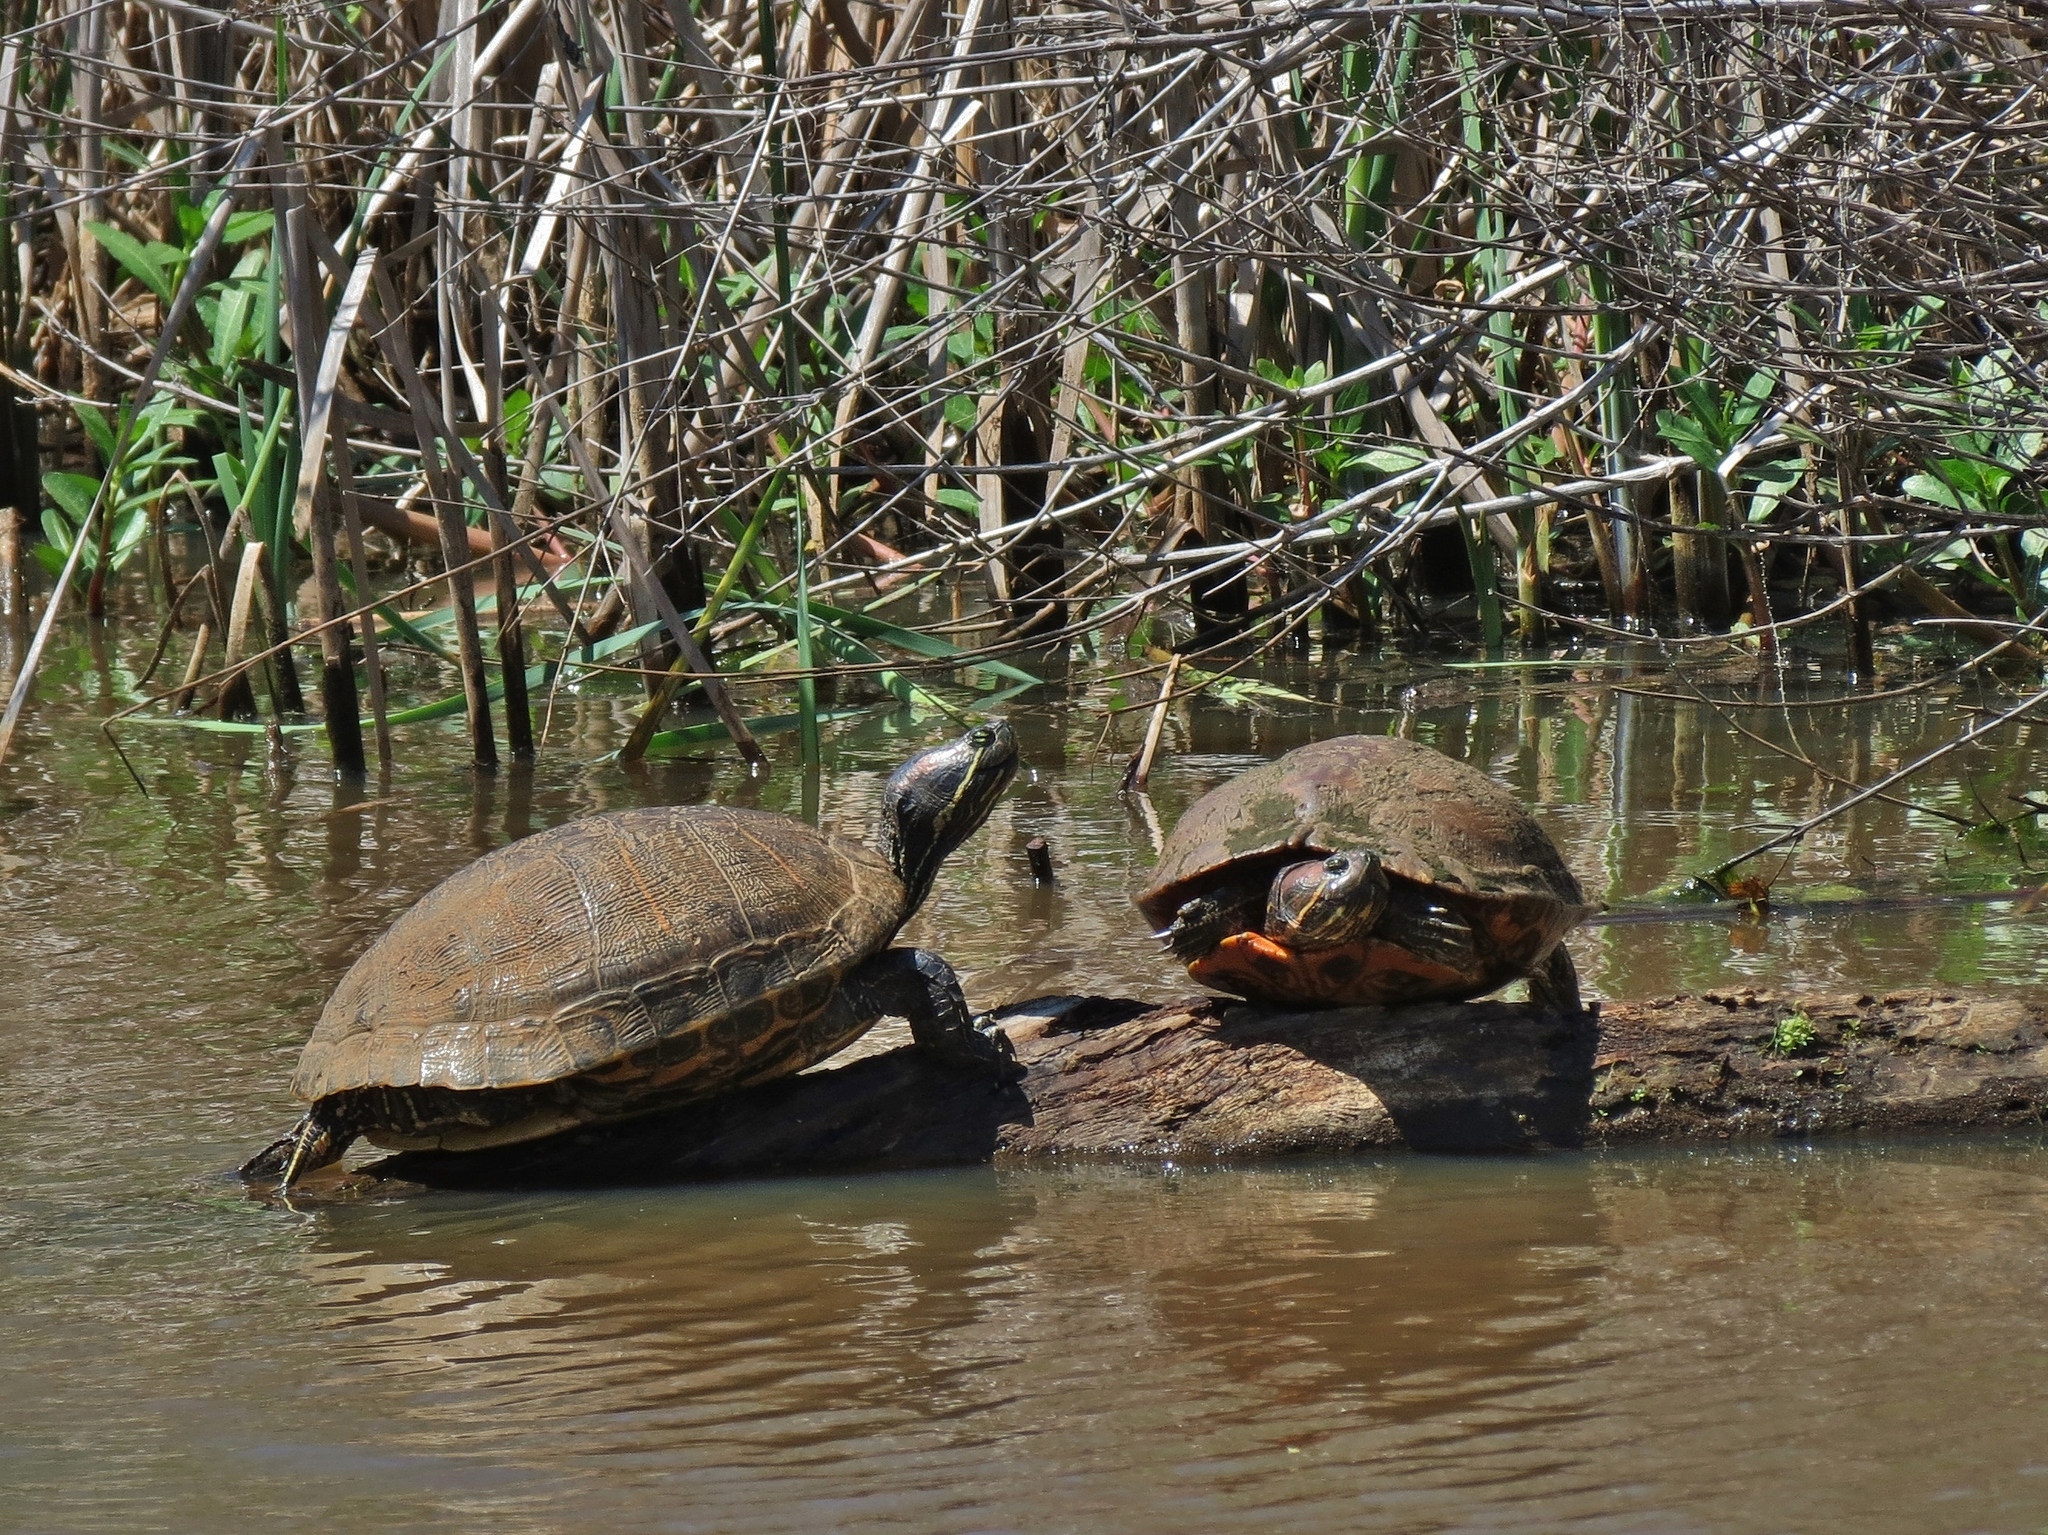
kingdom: Animalia
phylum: Chordata
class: Testudines
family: Emydidae
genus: Trachemys
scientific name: Trachemys scripta
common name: Slider
